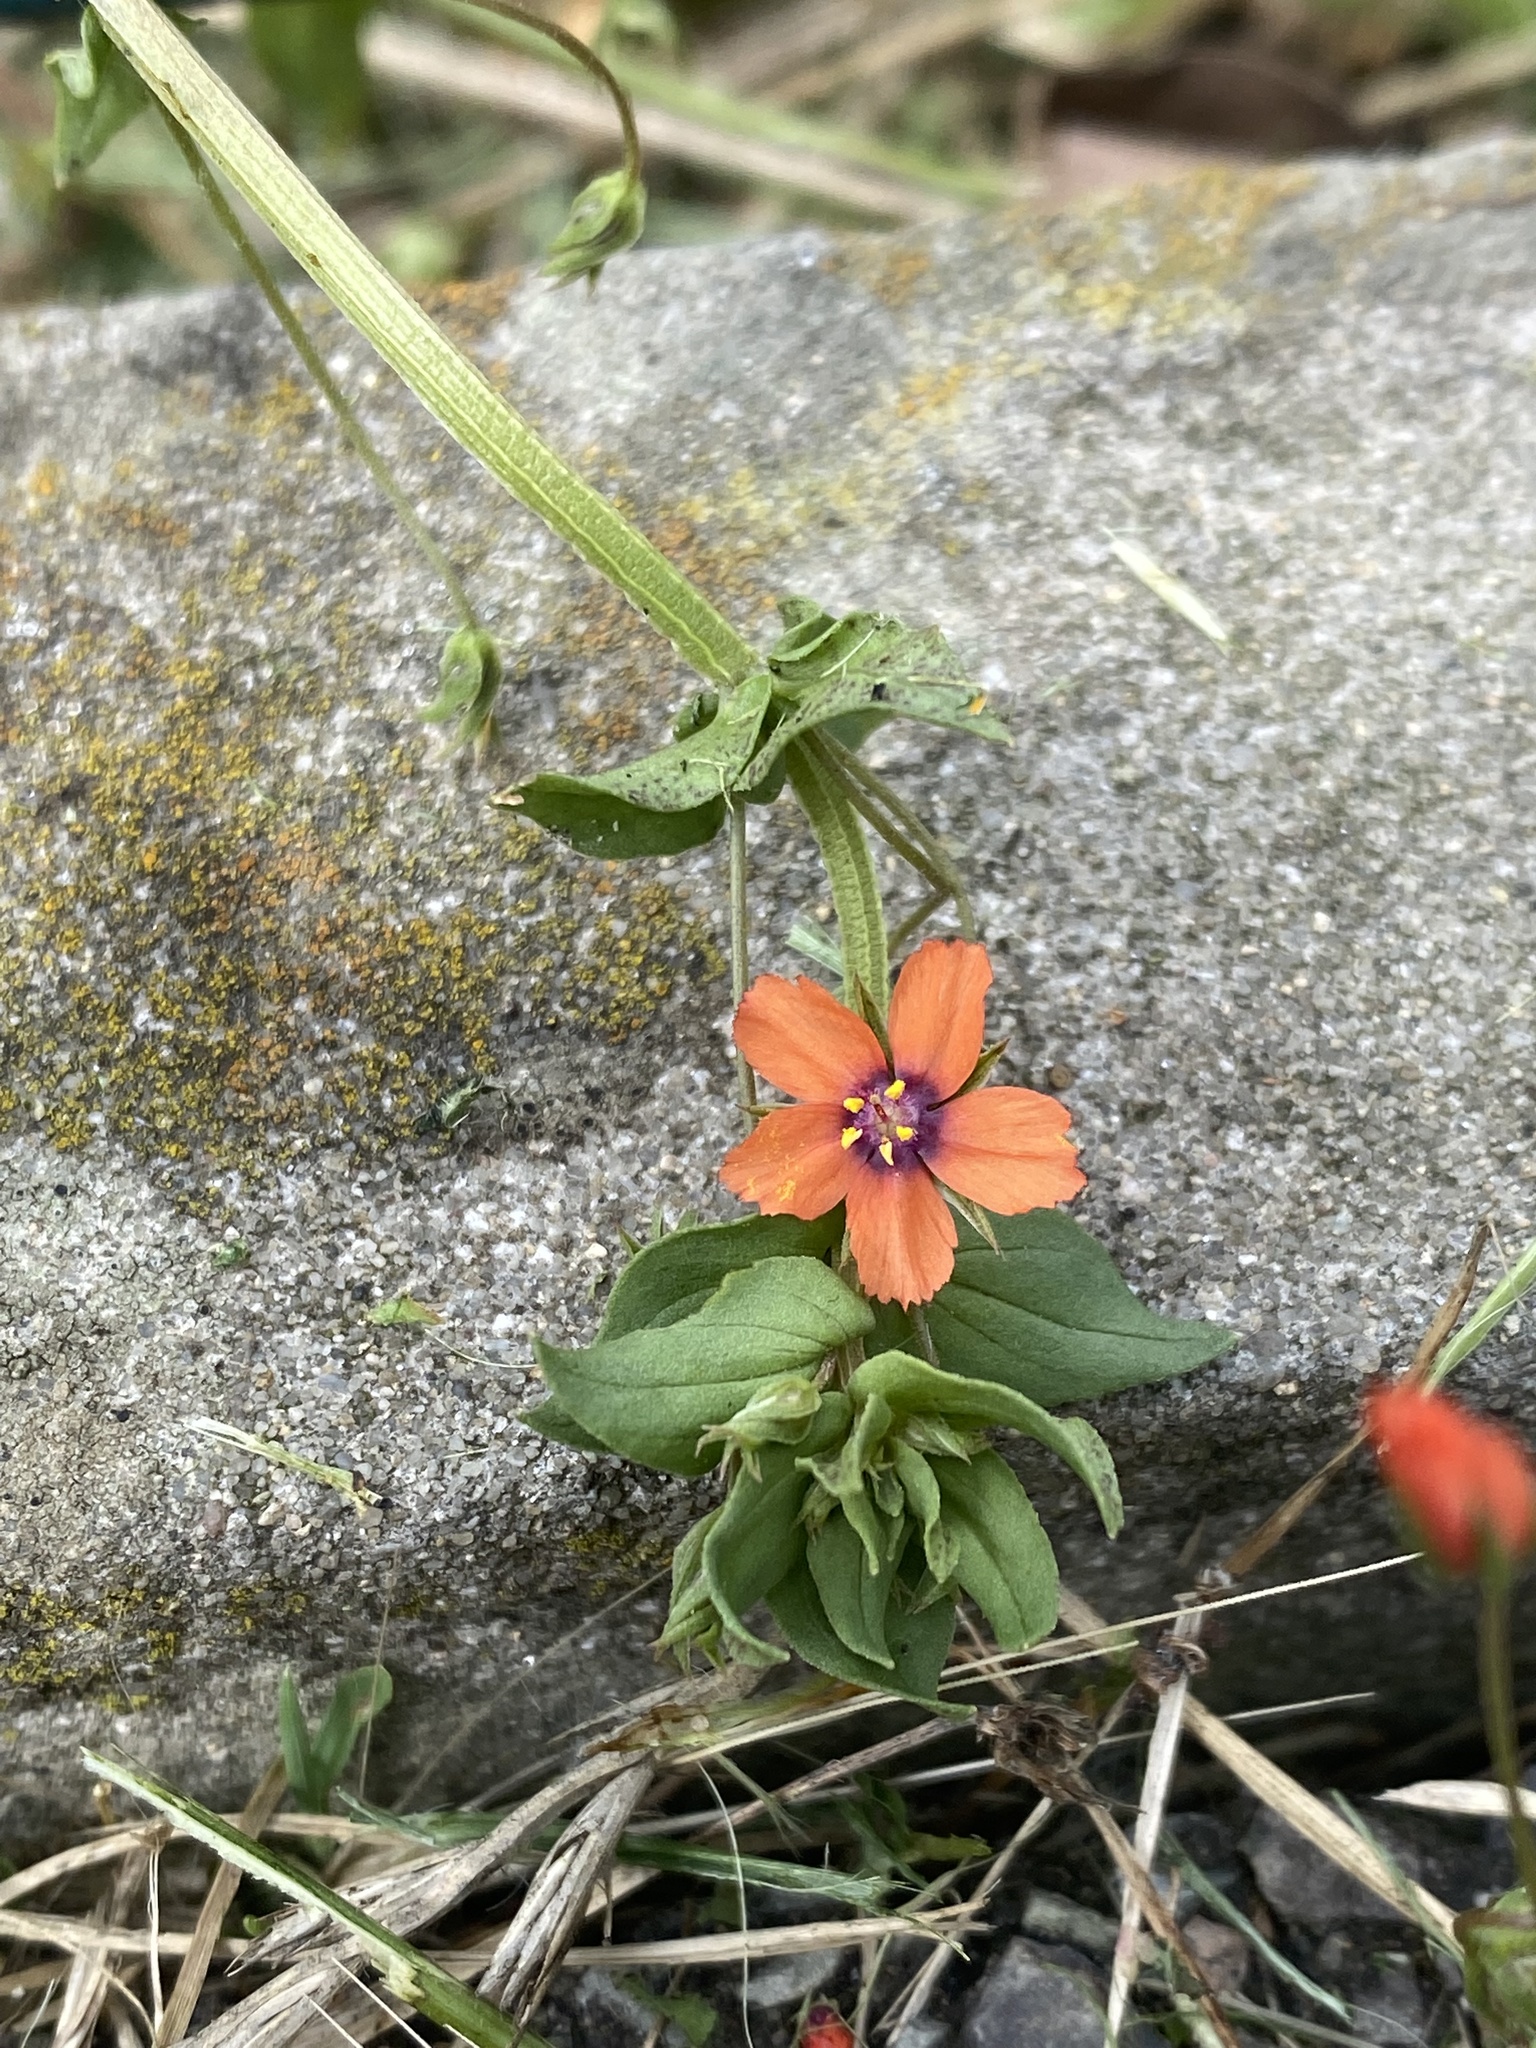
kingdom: Plantae
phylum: Tracheophyta
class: Magnoliopsida
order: Ericales
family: Primulaceae
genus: Lysimachia
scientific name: Lysimachia arvensis
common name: Scarlet pimpernel
